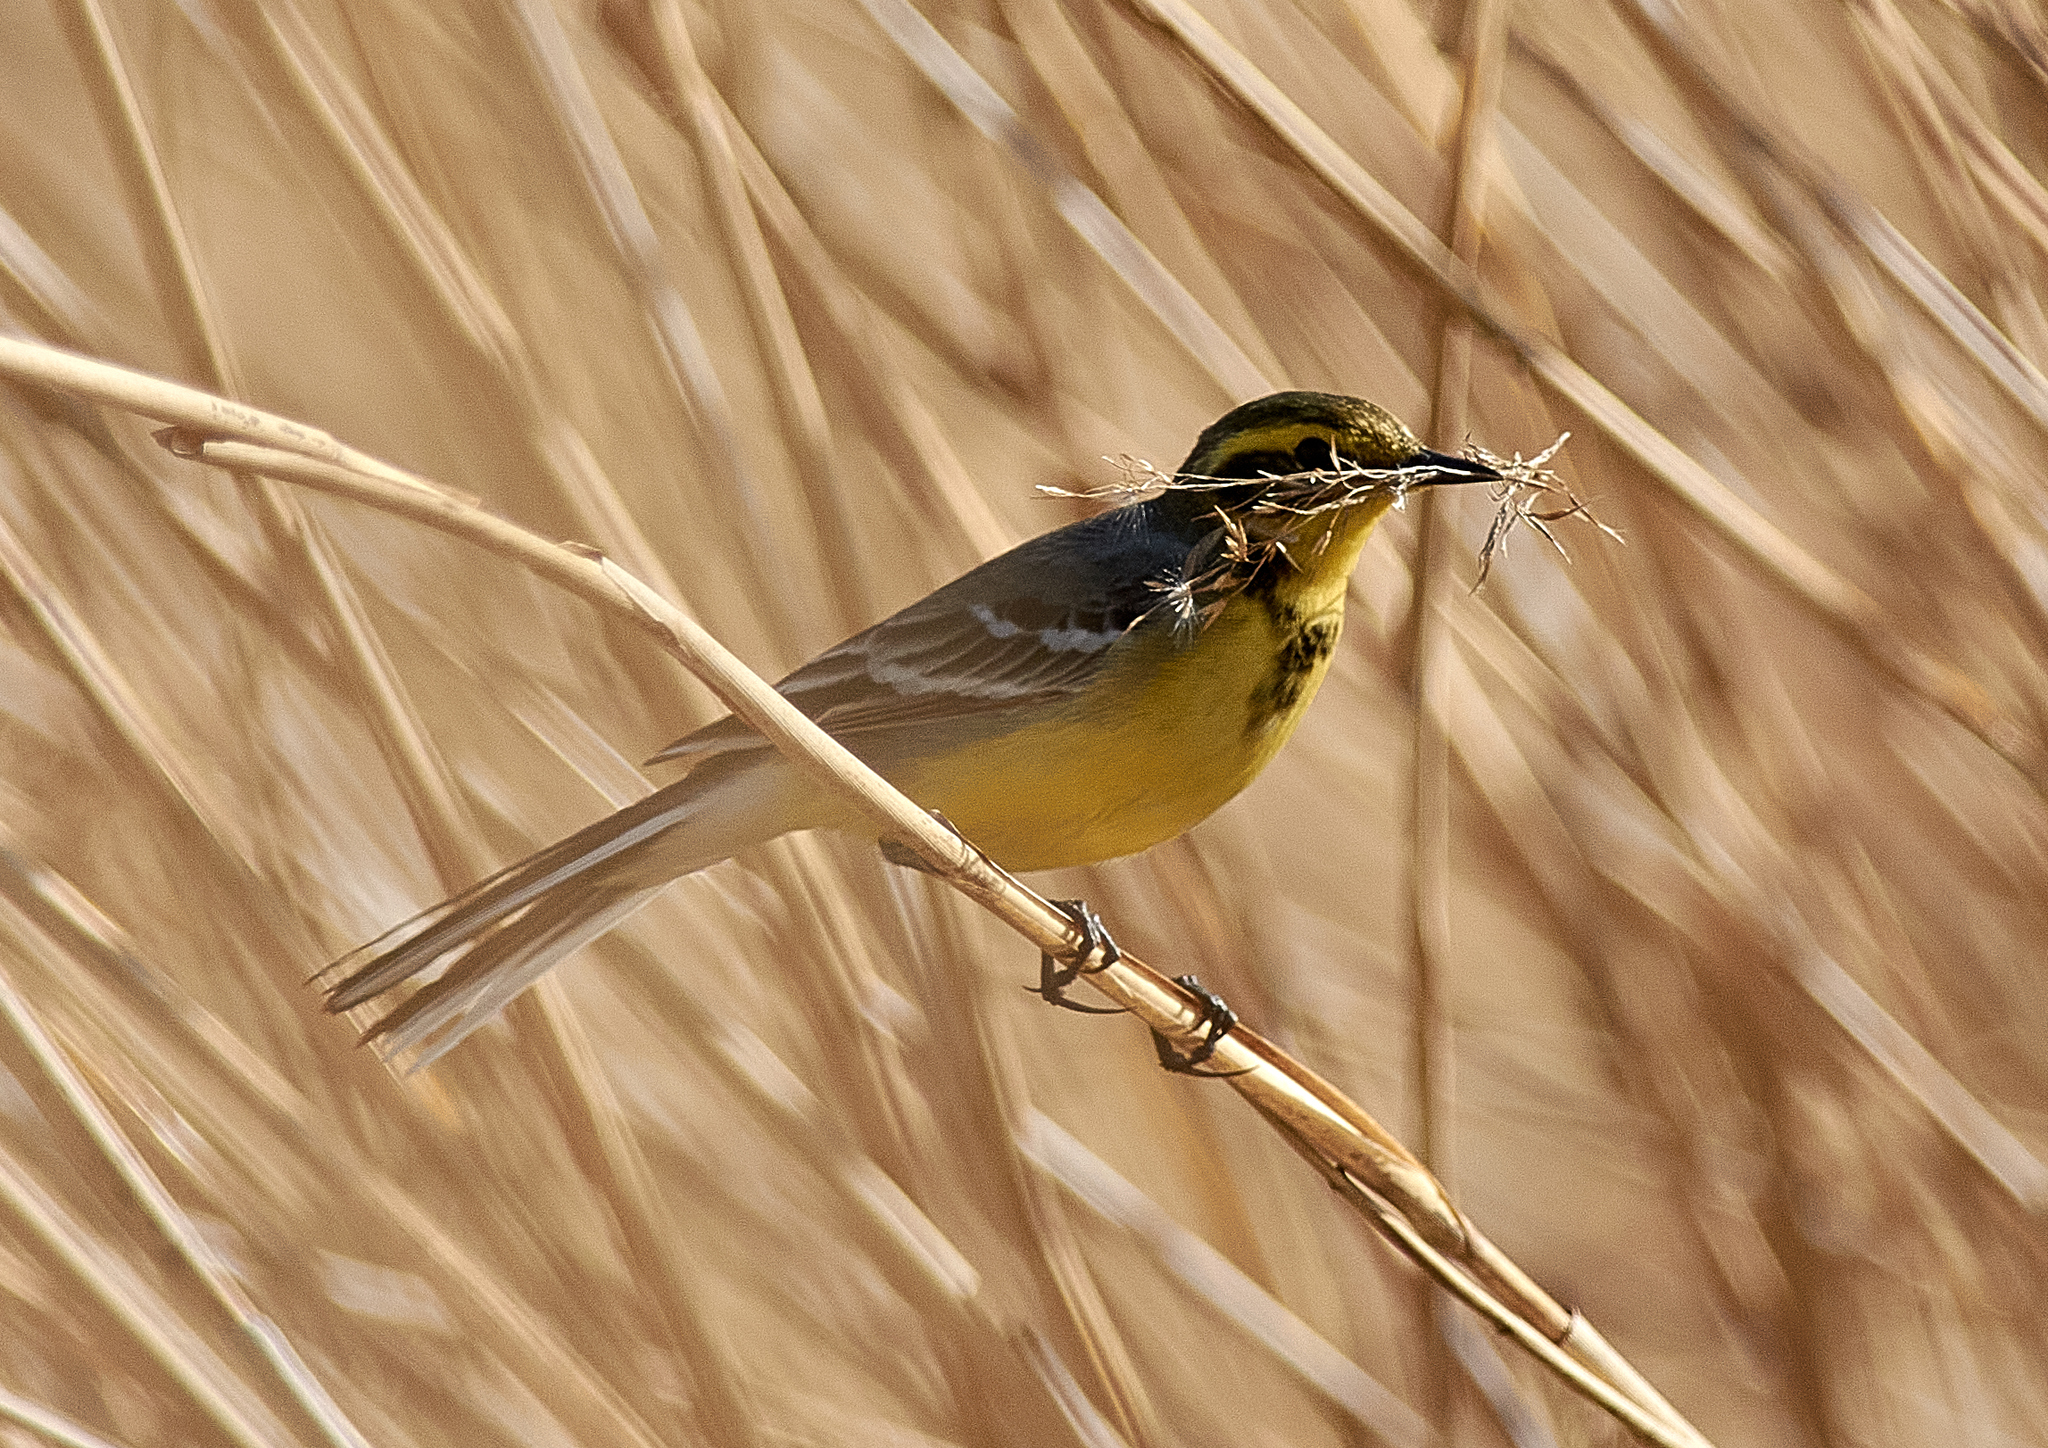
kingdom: Animalia
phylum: Chordata
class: Aves
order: Passeriformes
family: Motacillidae
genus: Motacilla
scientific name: Motacilla flava
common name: Western yellow wagtail
